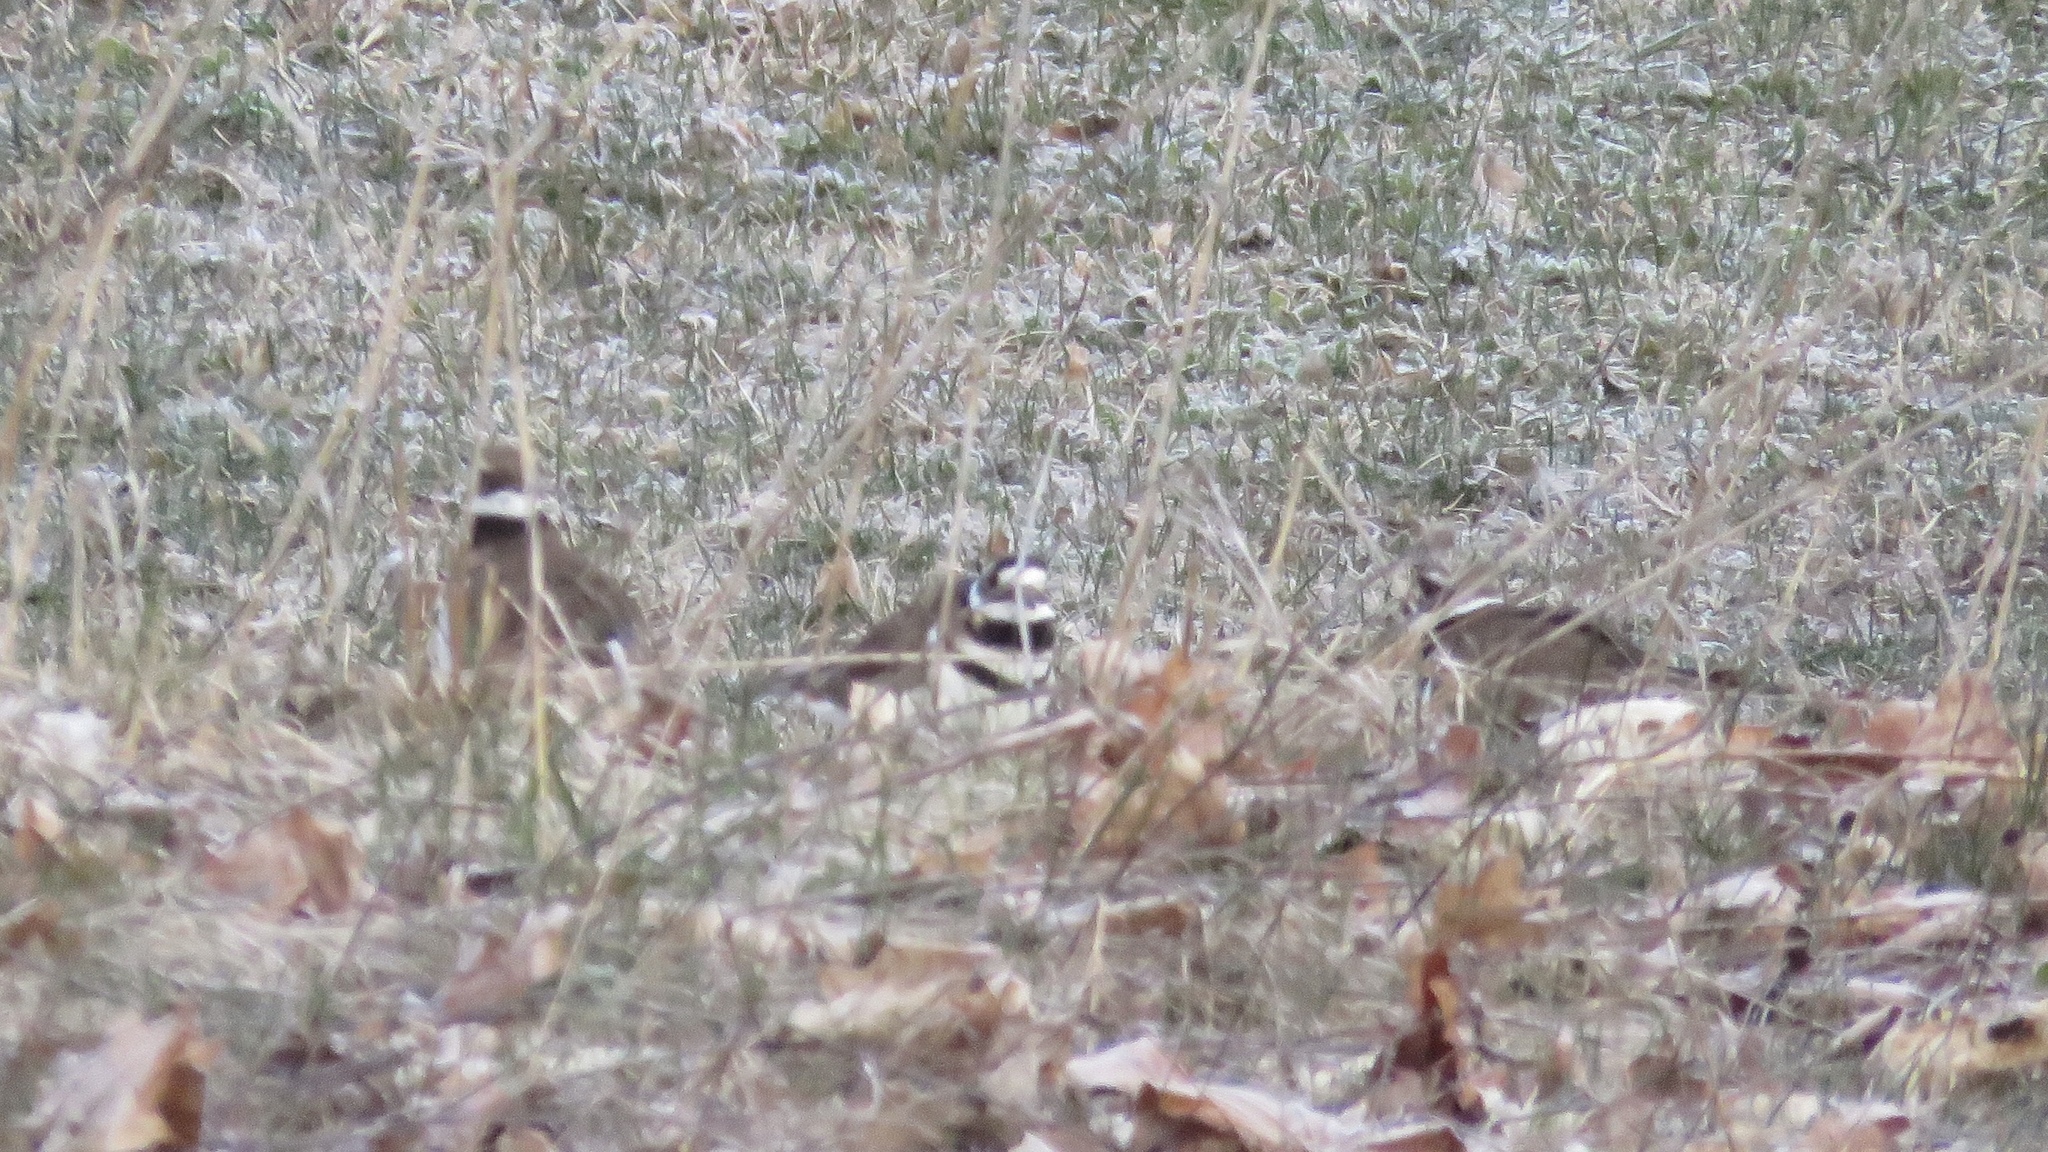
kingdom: Animalia
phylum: Chordata
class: Aves
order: Charadriiformes
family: Charadriidae
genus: Charadrius
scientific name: Charadrius vociferus
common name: Killdeer
